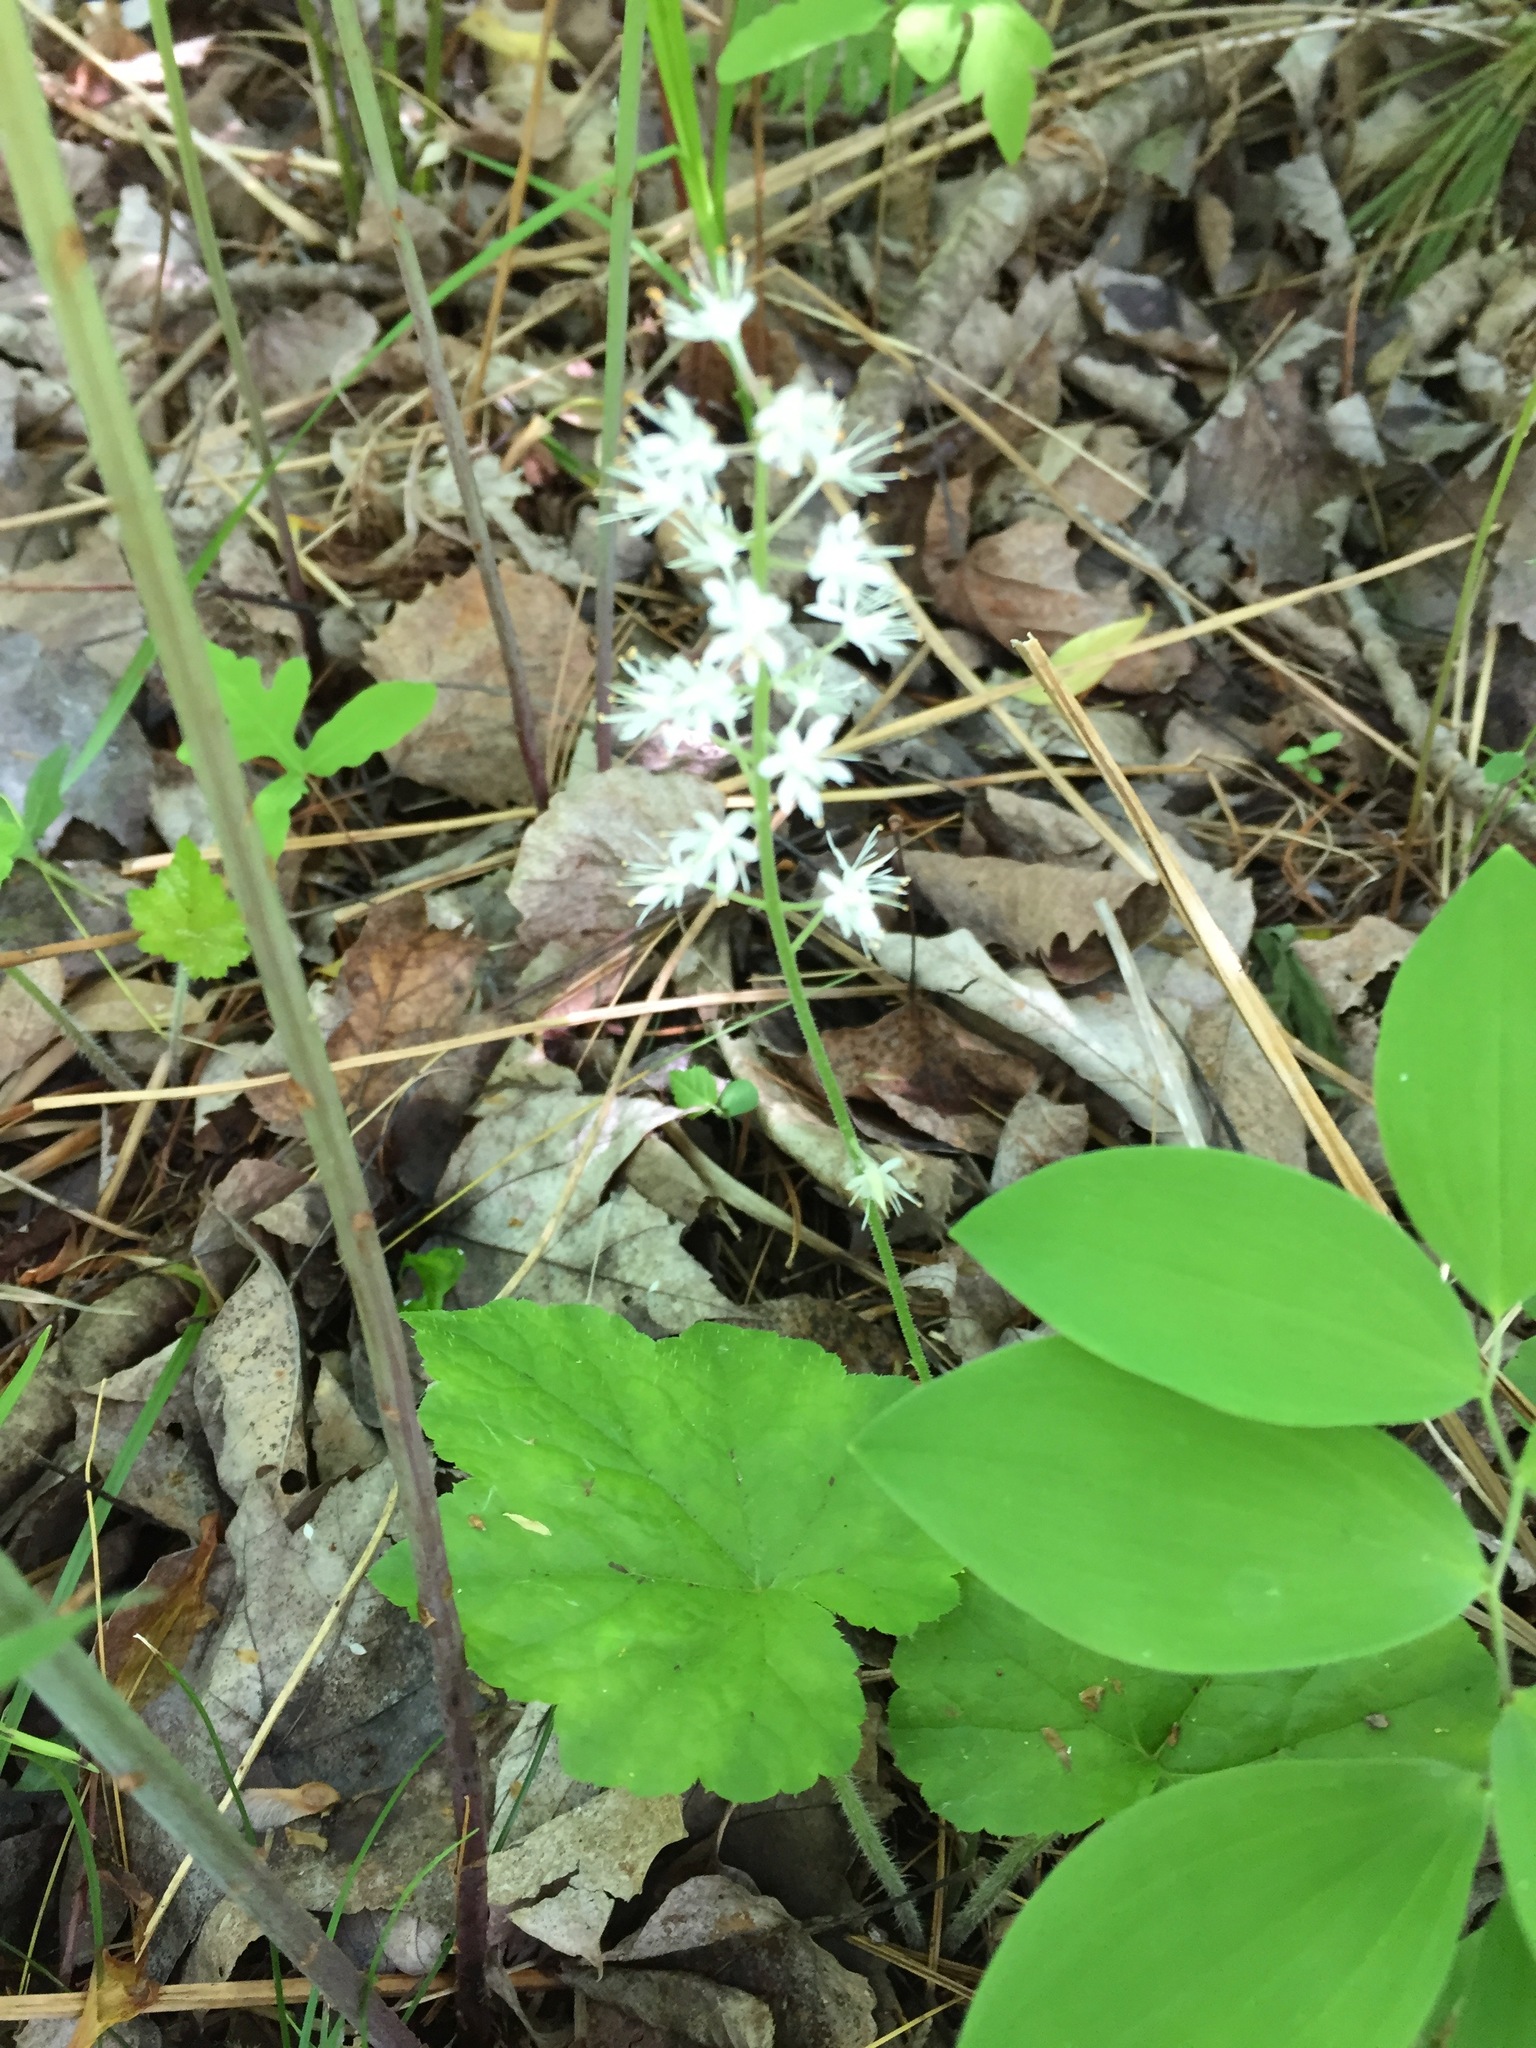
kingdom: Plantae
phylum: Tracheophyta
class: Magnoliopsida
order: Saxifragales
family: Saxifragaceae
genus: Tiarella
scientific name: Tiarella stolonifera
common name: Stoloniferous foamflower
